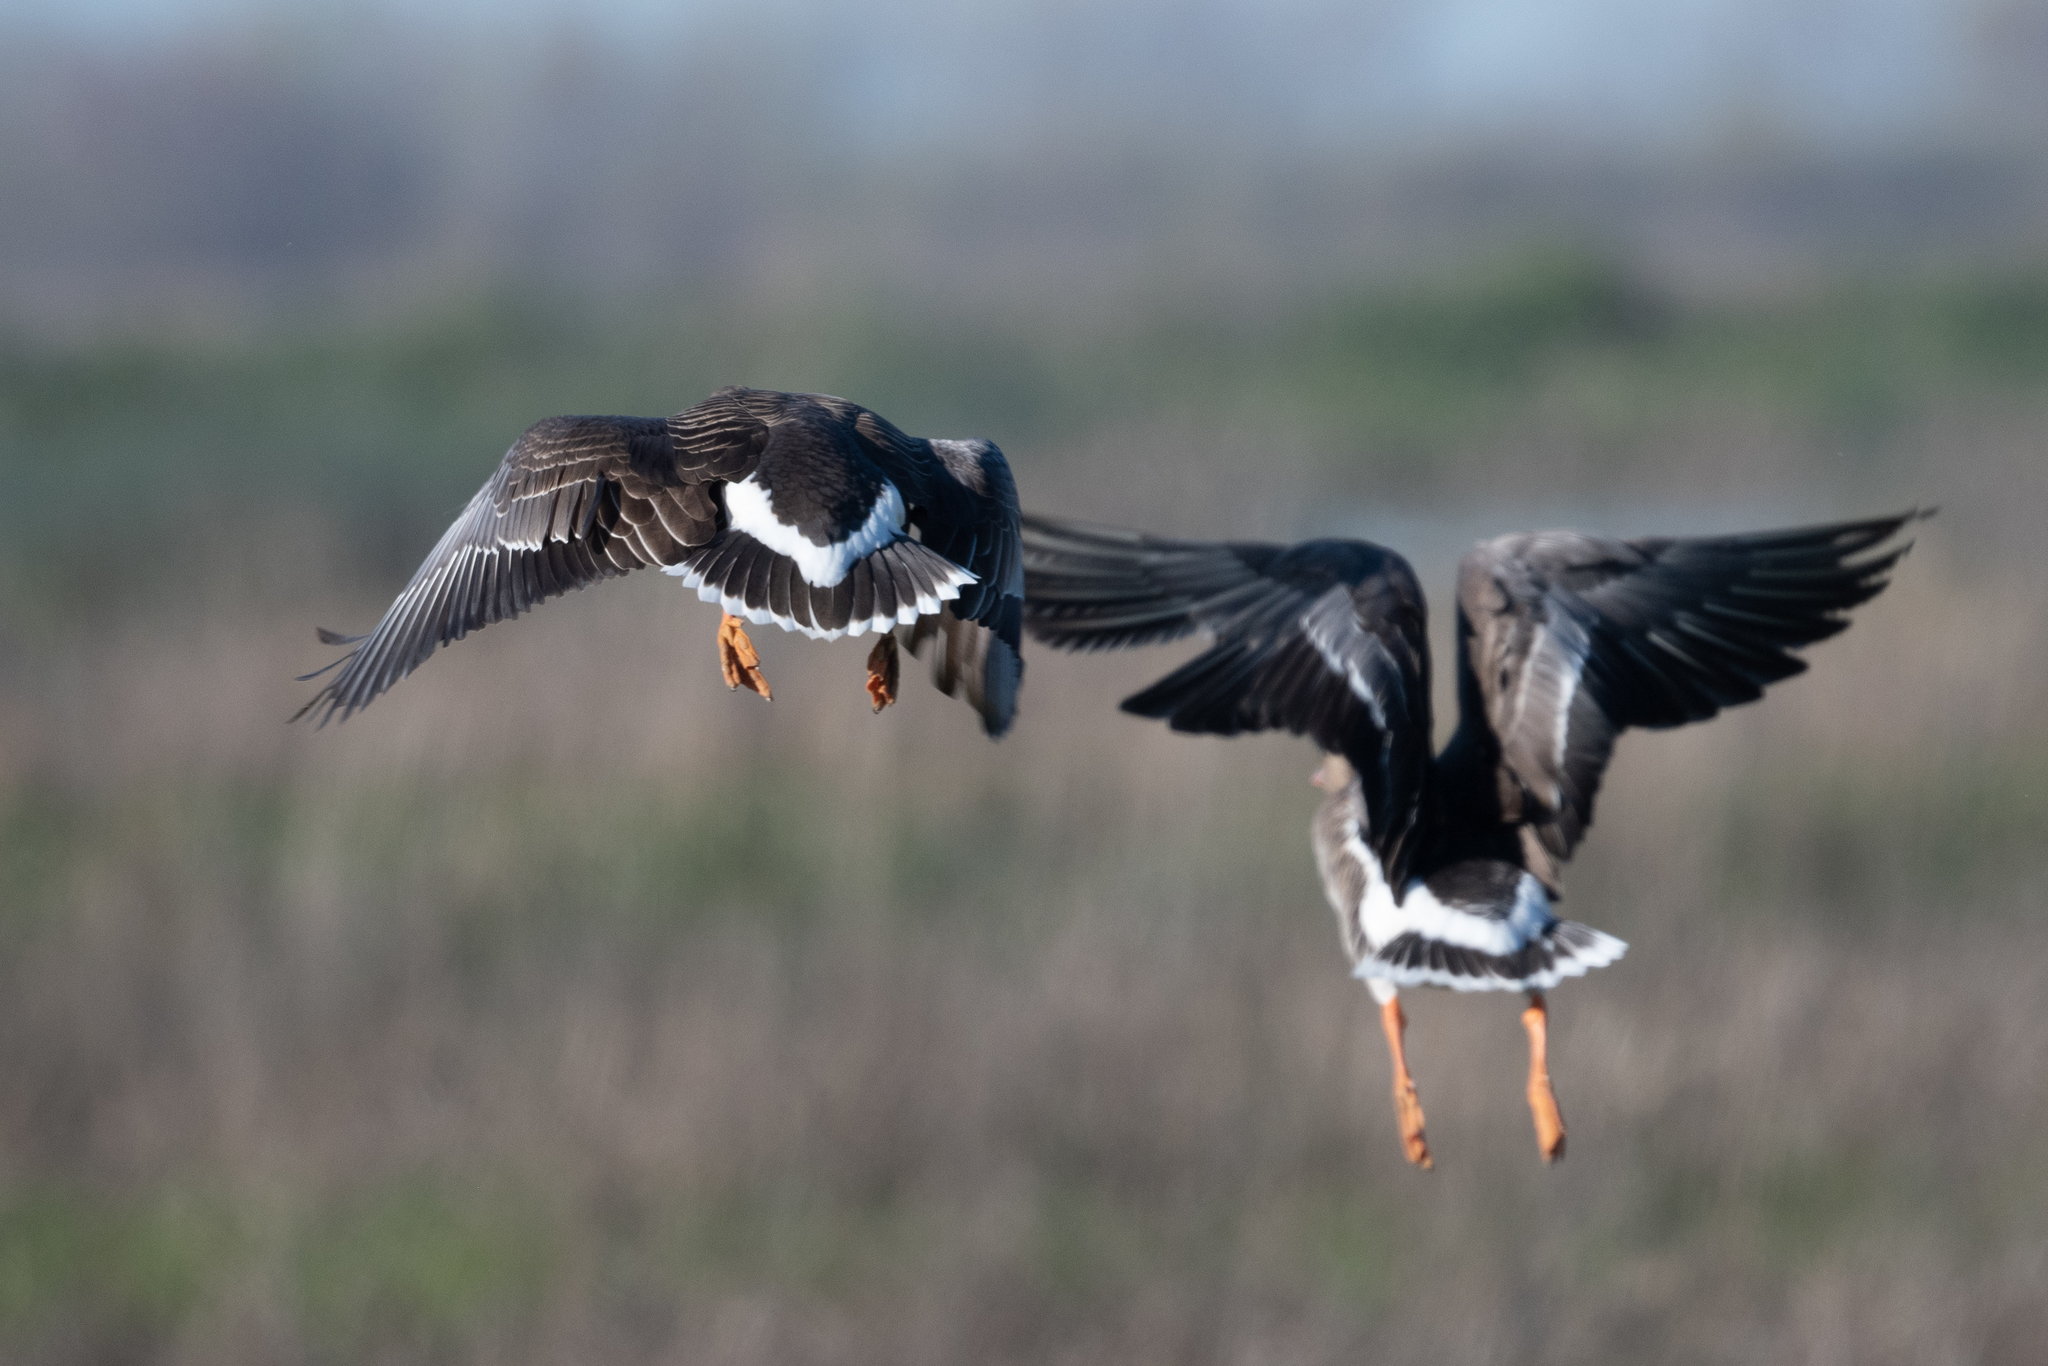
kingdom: Animalia
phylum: Chordata
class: Aves
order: Anseriformes
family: Anatidae
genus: Anser
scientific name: Anser albifrons
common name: Greater white-fronted goose
